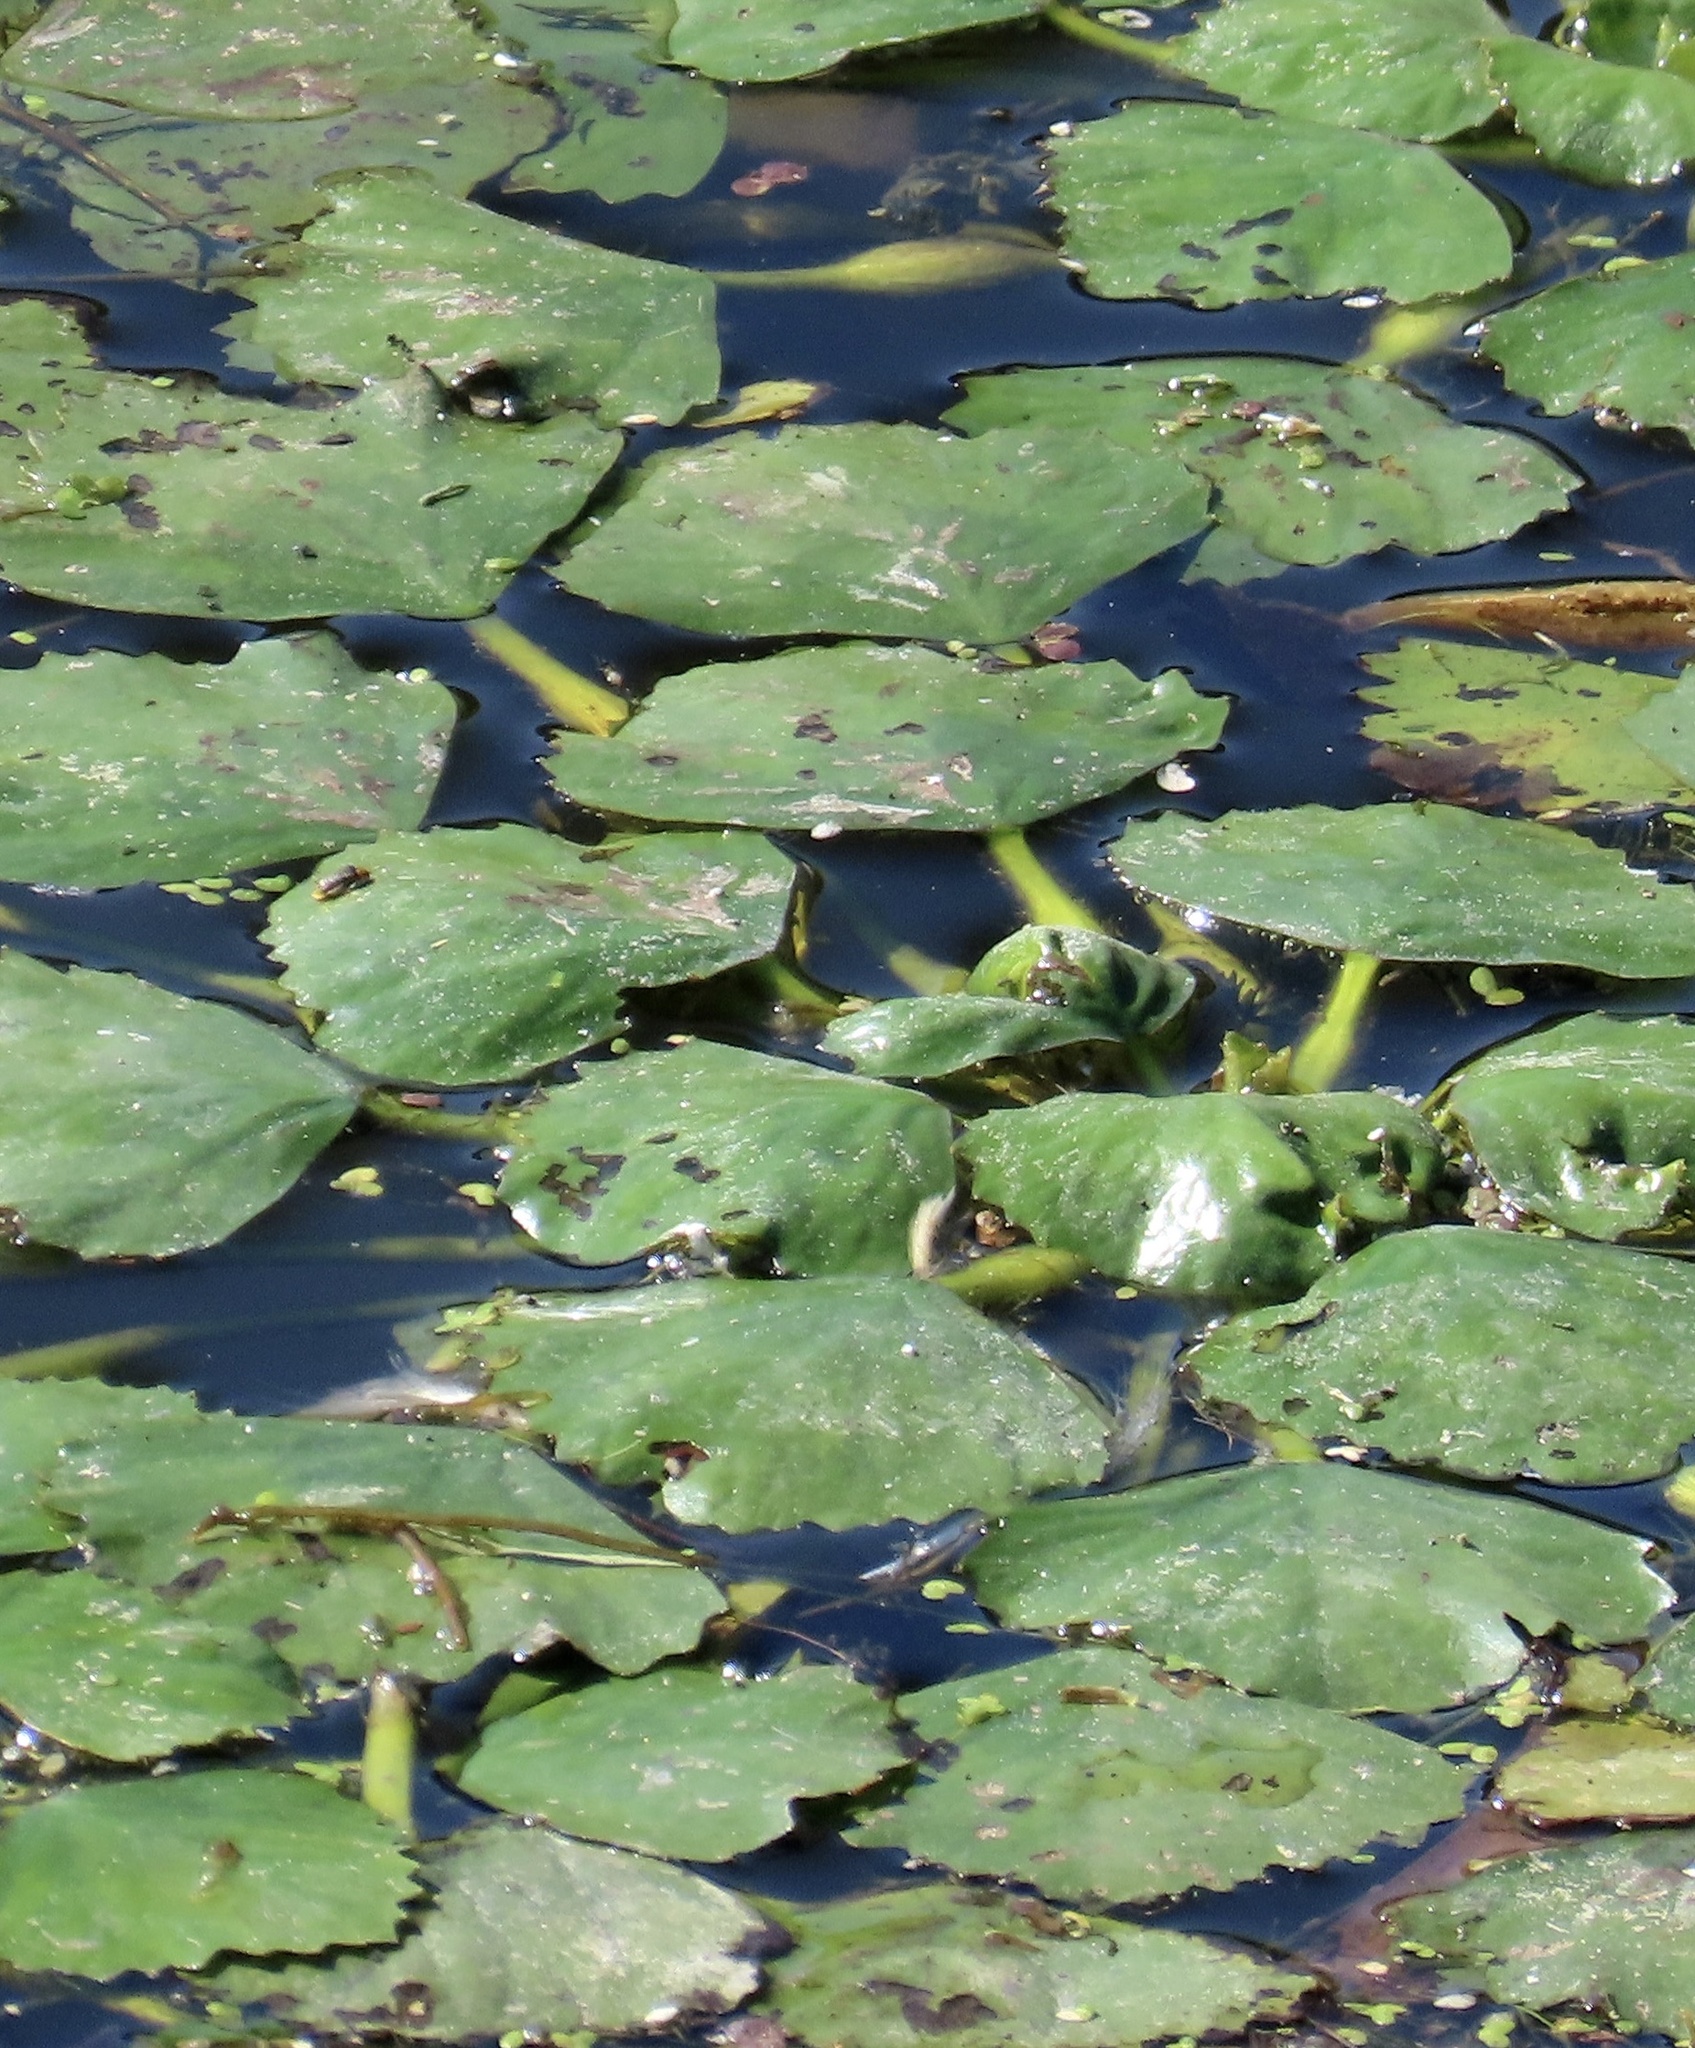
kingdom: Plantae
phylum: Tracheophyta
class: Magnoliopsida
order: Myrtales
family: Lythraceae
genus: Trapa
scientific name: Trapa natans
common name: Water chestnut
